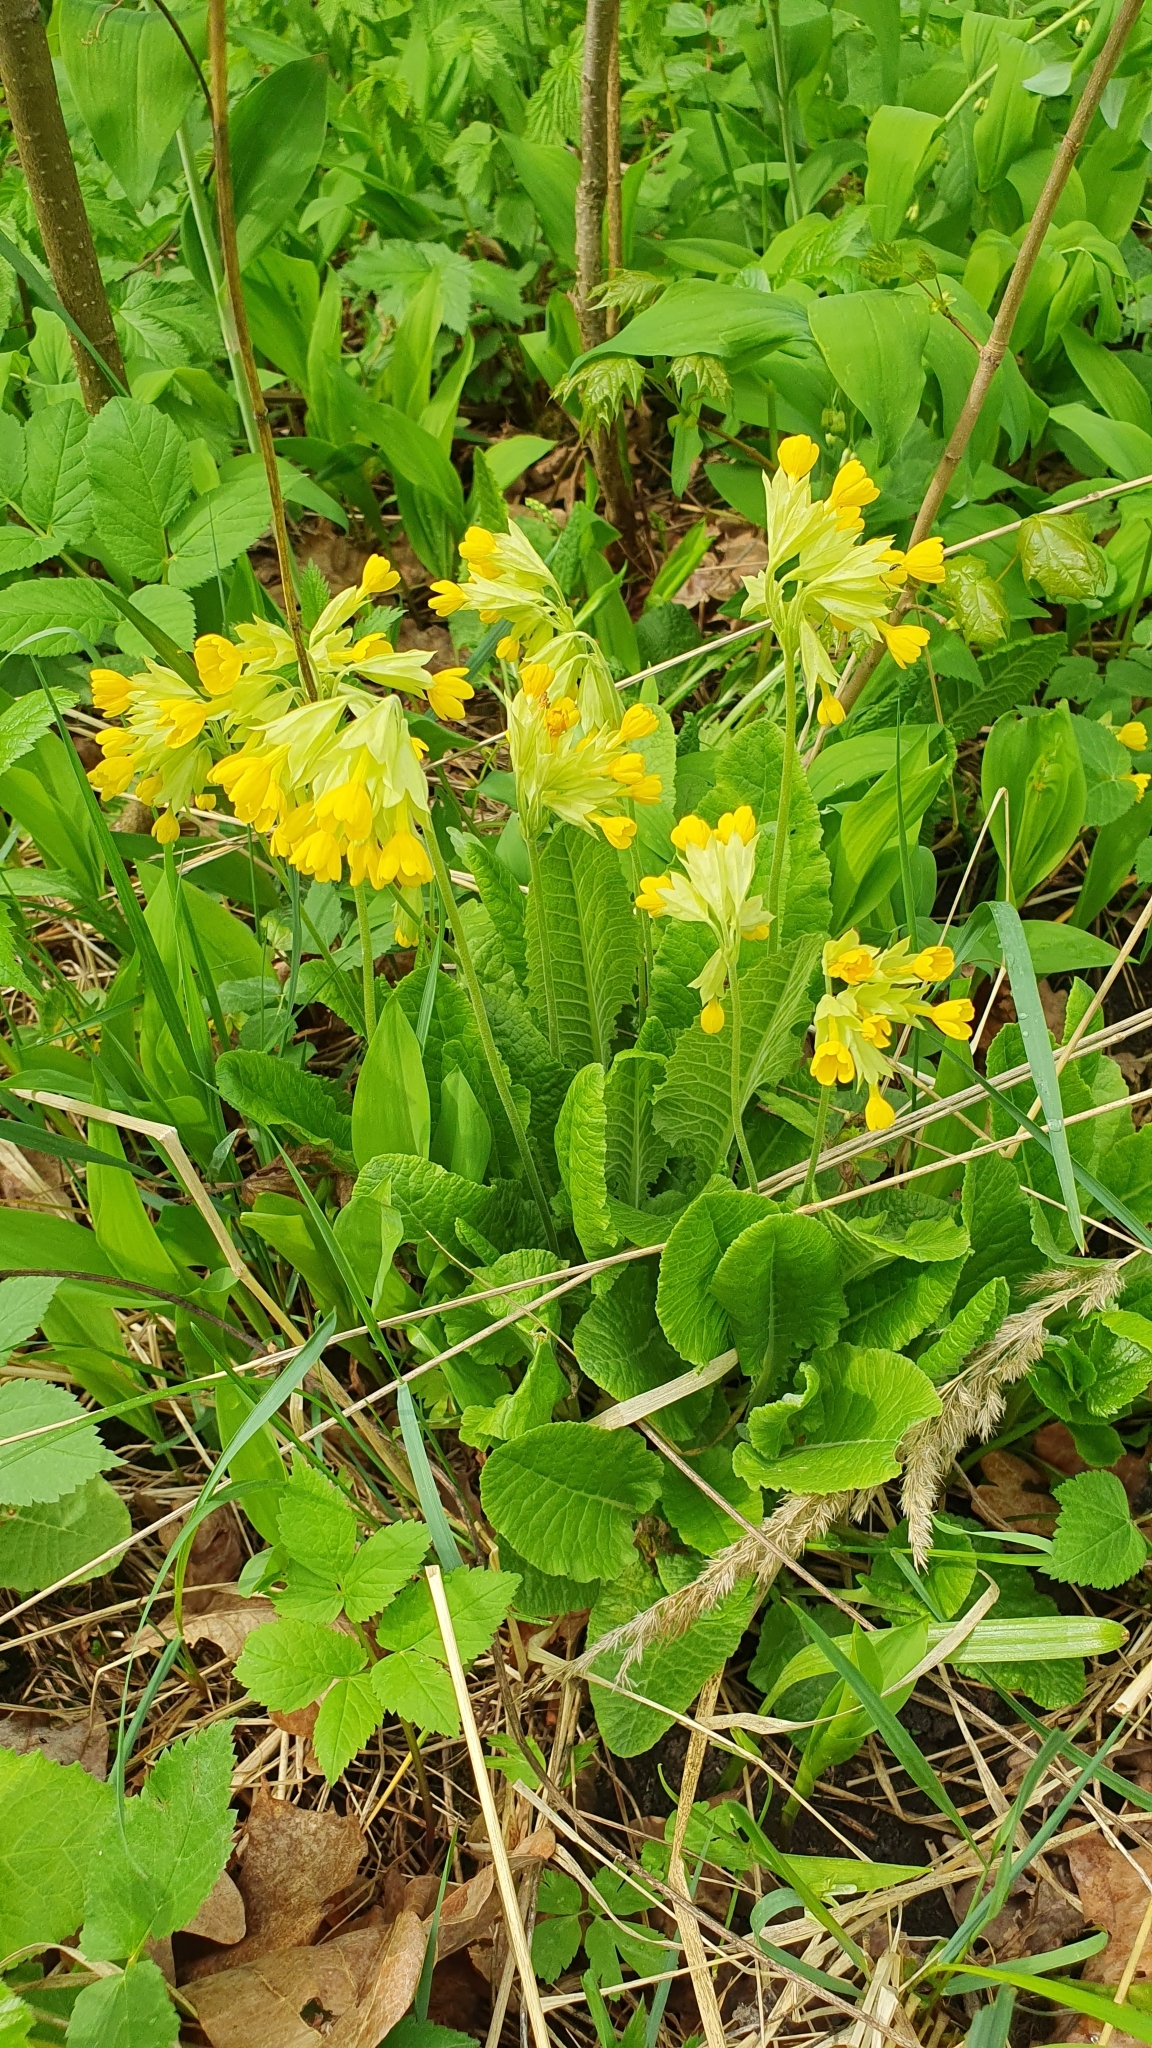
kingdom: Plantae
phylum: Tracheophyta
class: Magnoliopsida
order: Ericales
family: Primulaceae
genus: Primula
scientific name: Primula veris
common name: Cowslip
